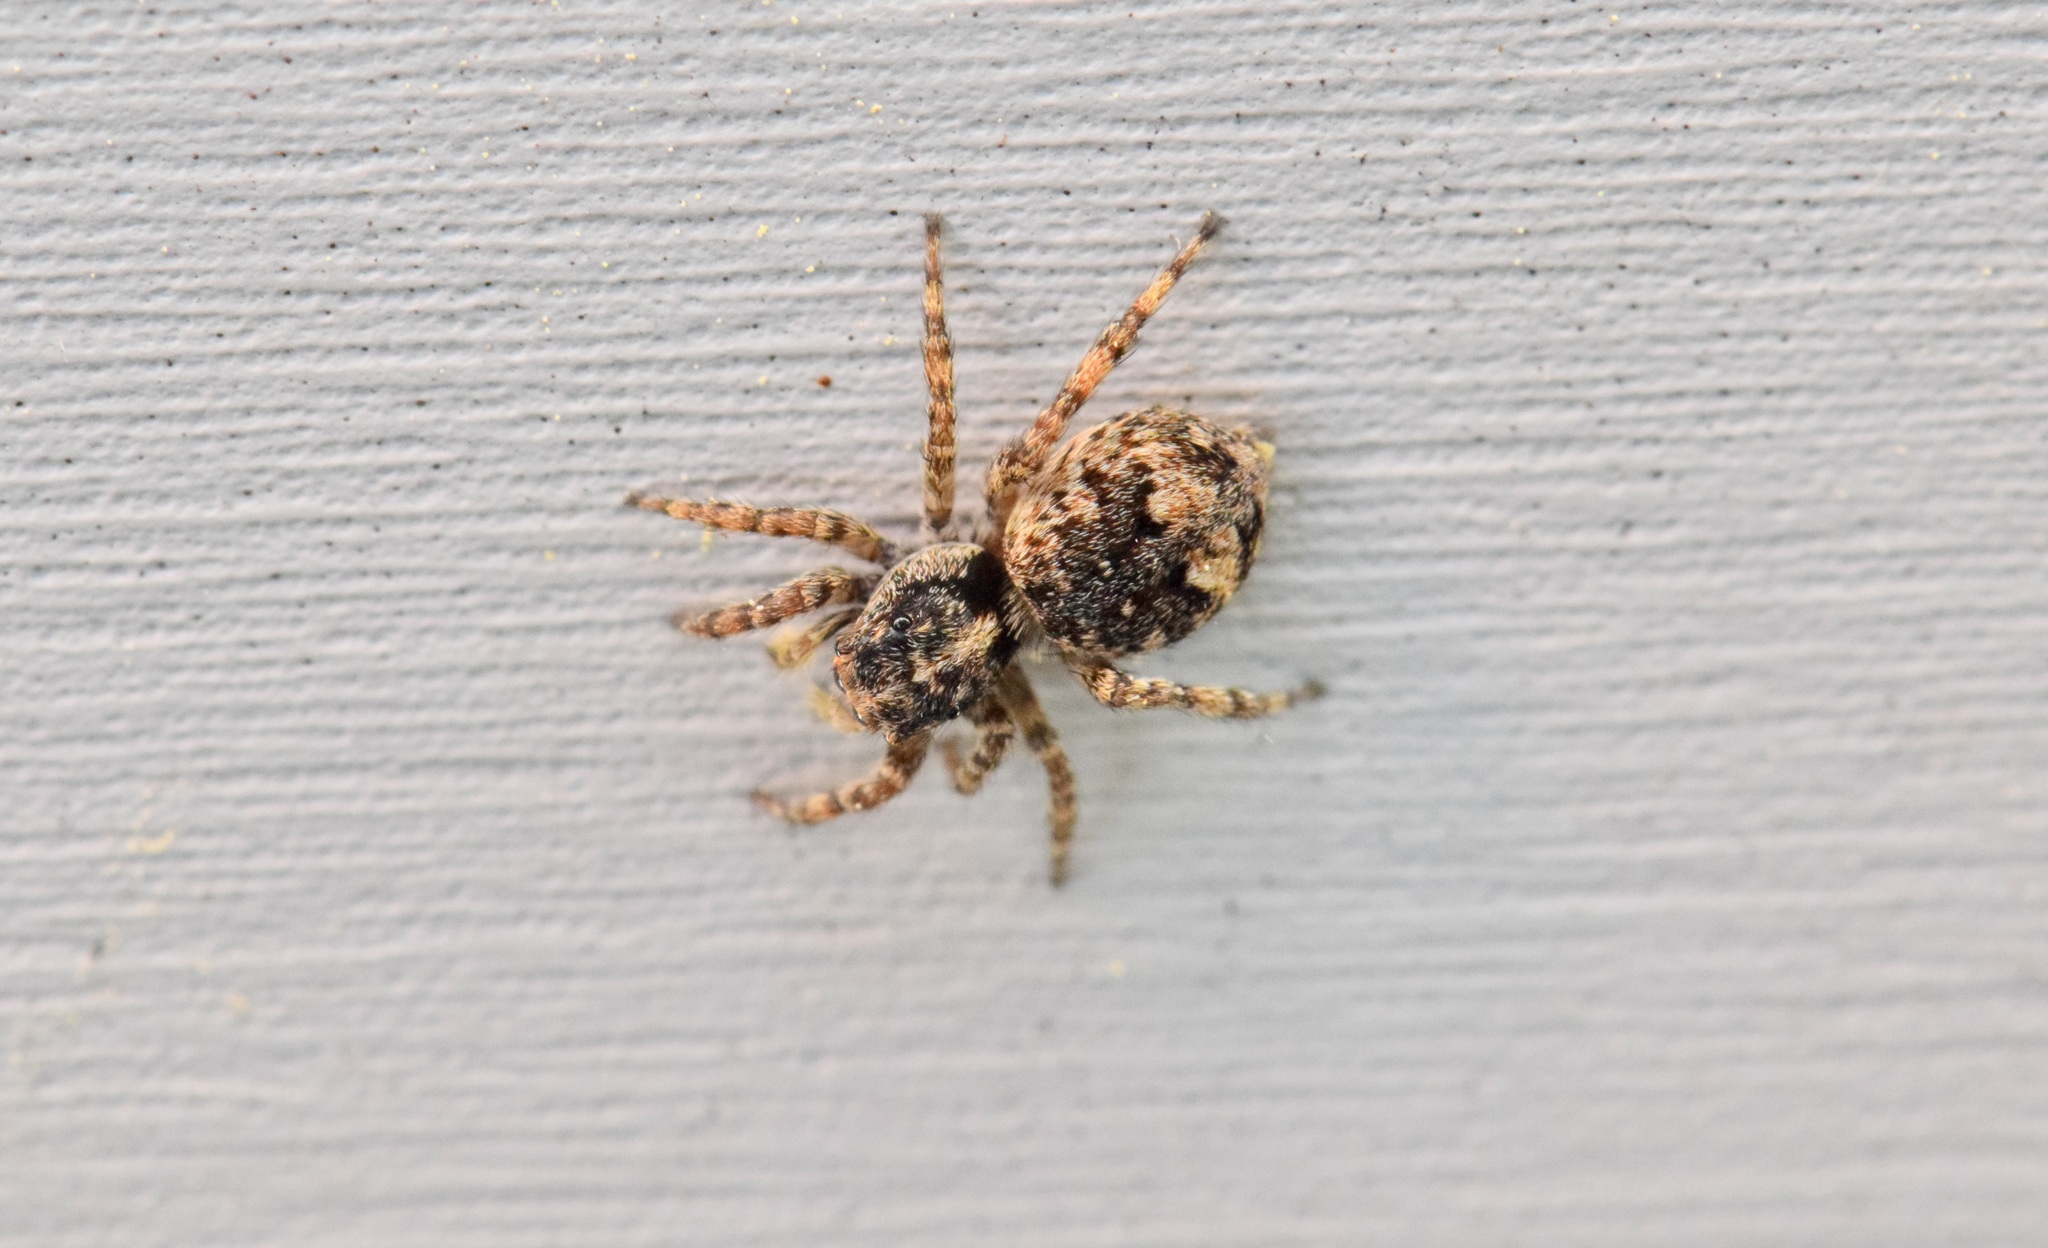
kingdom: Animalia
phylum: Arthropoda
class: Arachnida
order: Araneae
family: Salticidae
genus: Attulus
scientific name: Attulus fasciger
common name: Asiatic wall jumping spider
